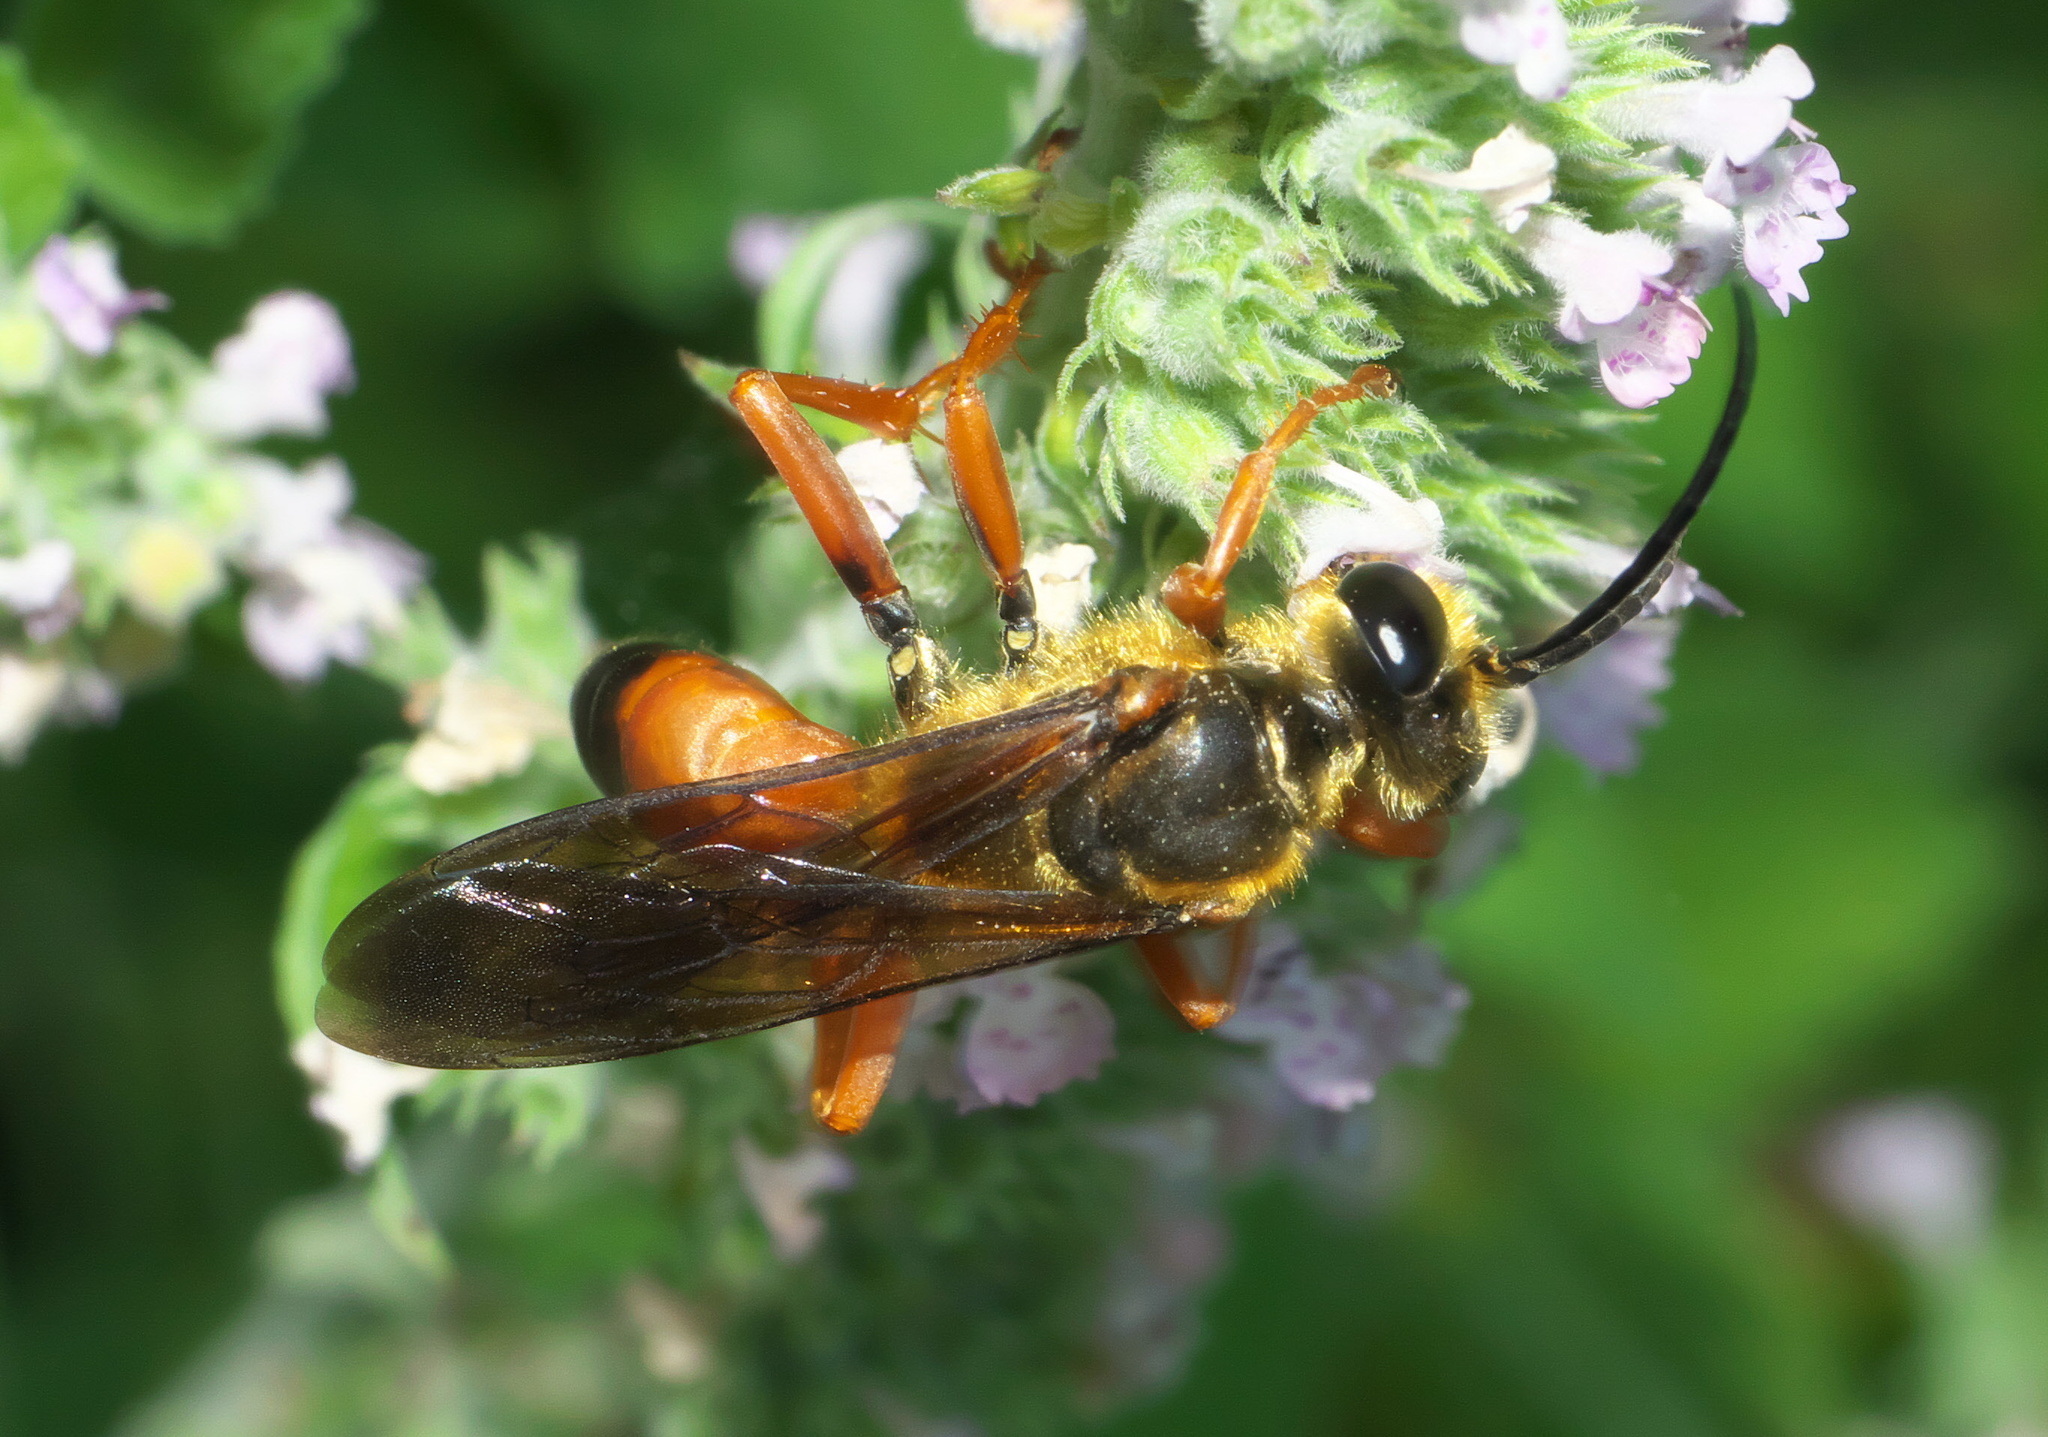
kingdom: Animalia
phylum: Arthropoda
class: Insecta
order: Hymenoptera
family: Sphecidae
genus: Sphex
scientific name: Sphex ichneumoneus
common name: Great golden digger wasp
